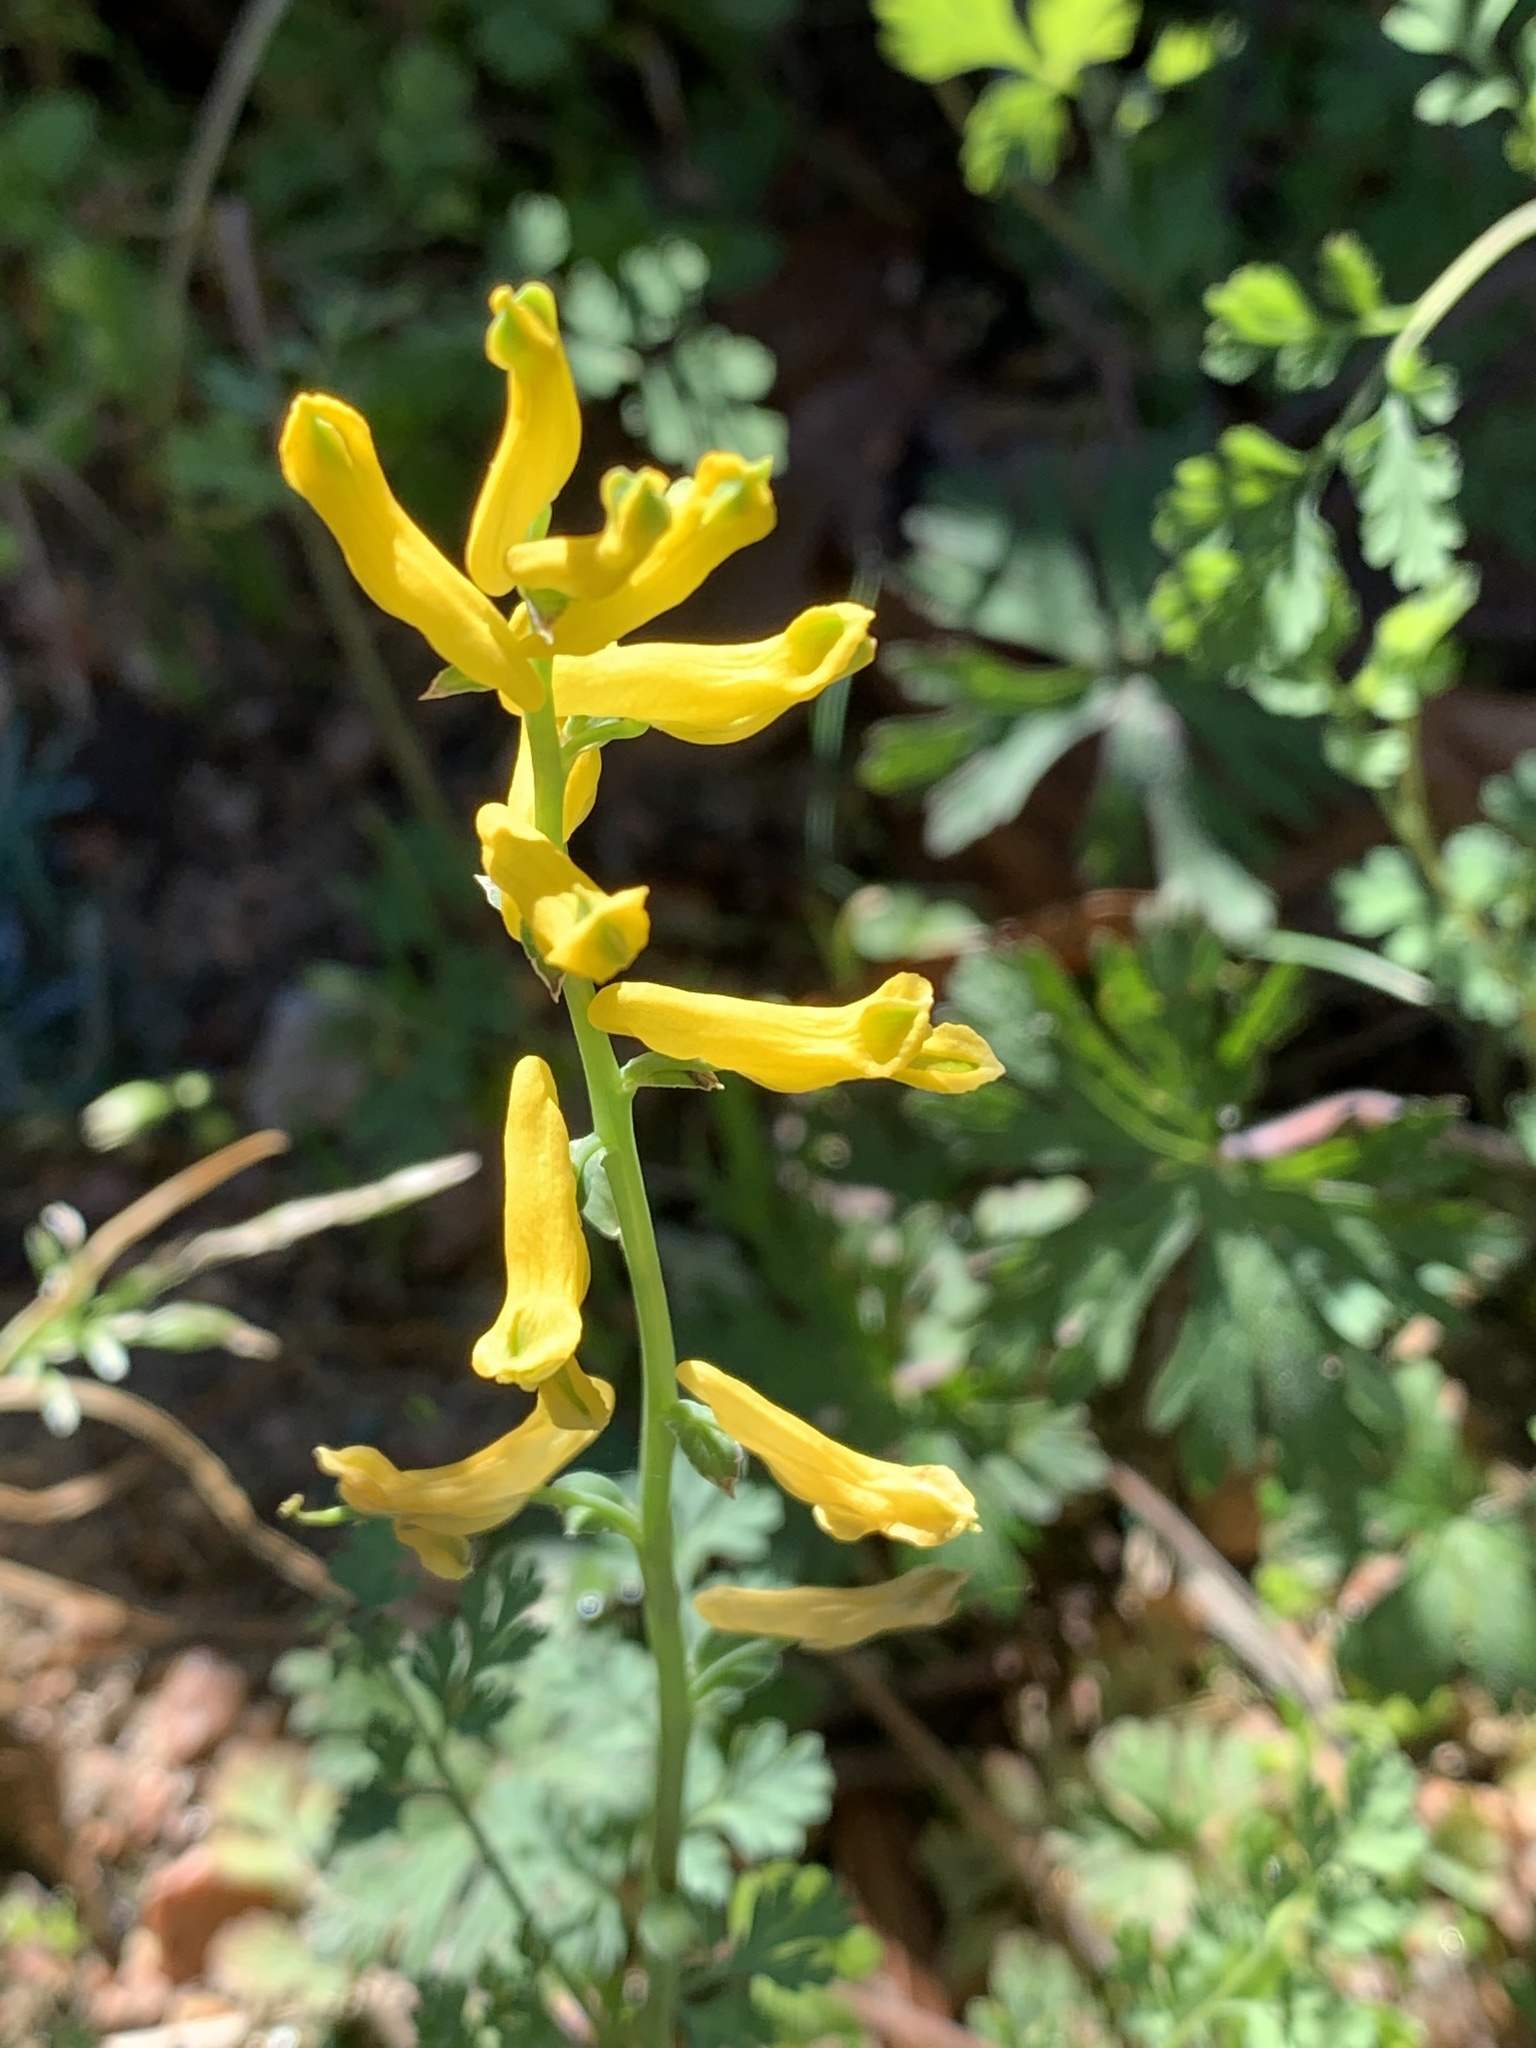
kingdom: Plantae
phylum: Tracheophyta
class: Magnoliopsida
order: Ranunculales
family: Papaveraceae
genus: Corydalis
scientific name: Corydalis micrantha
